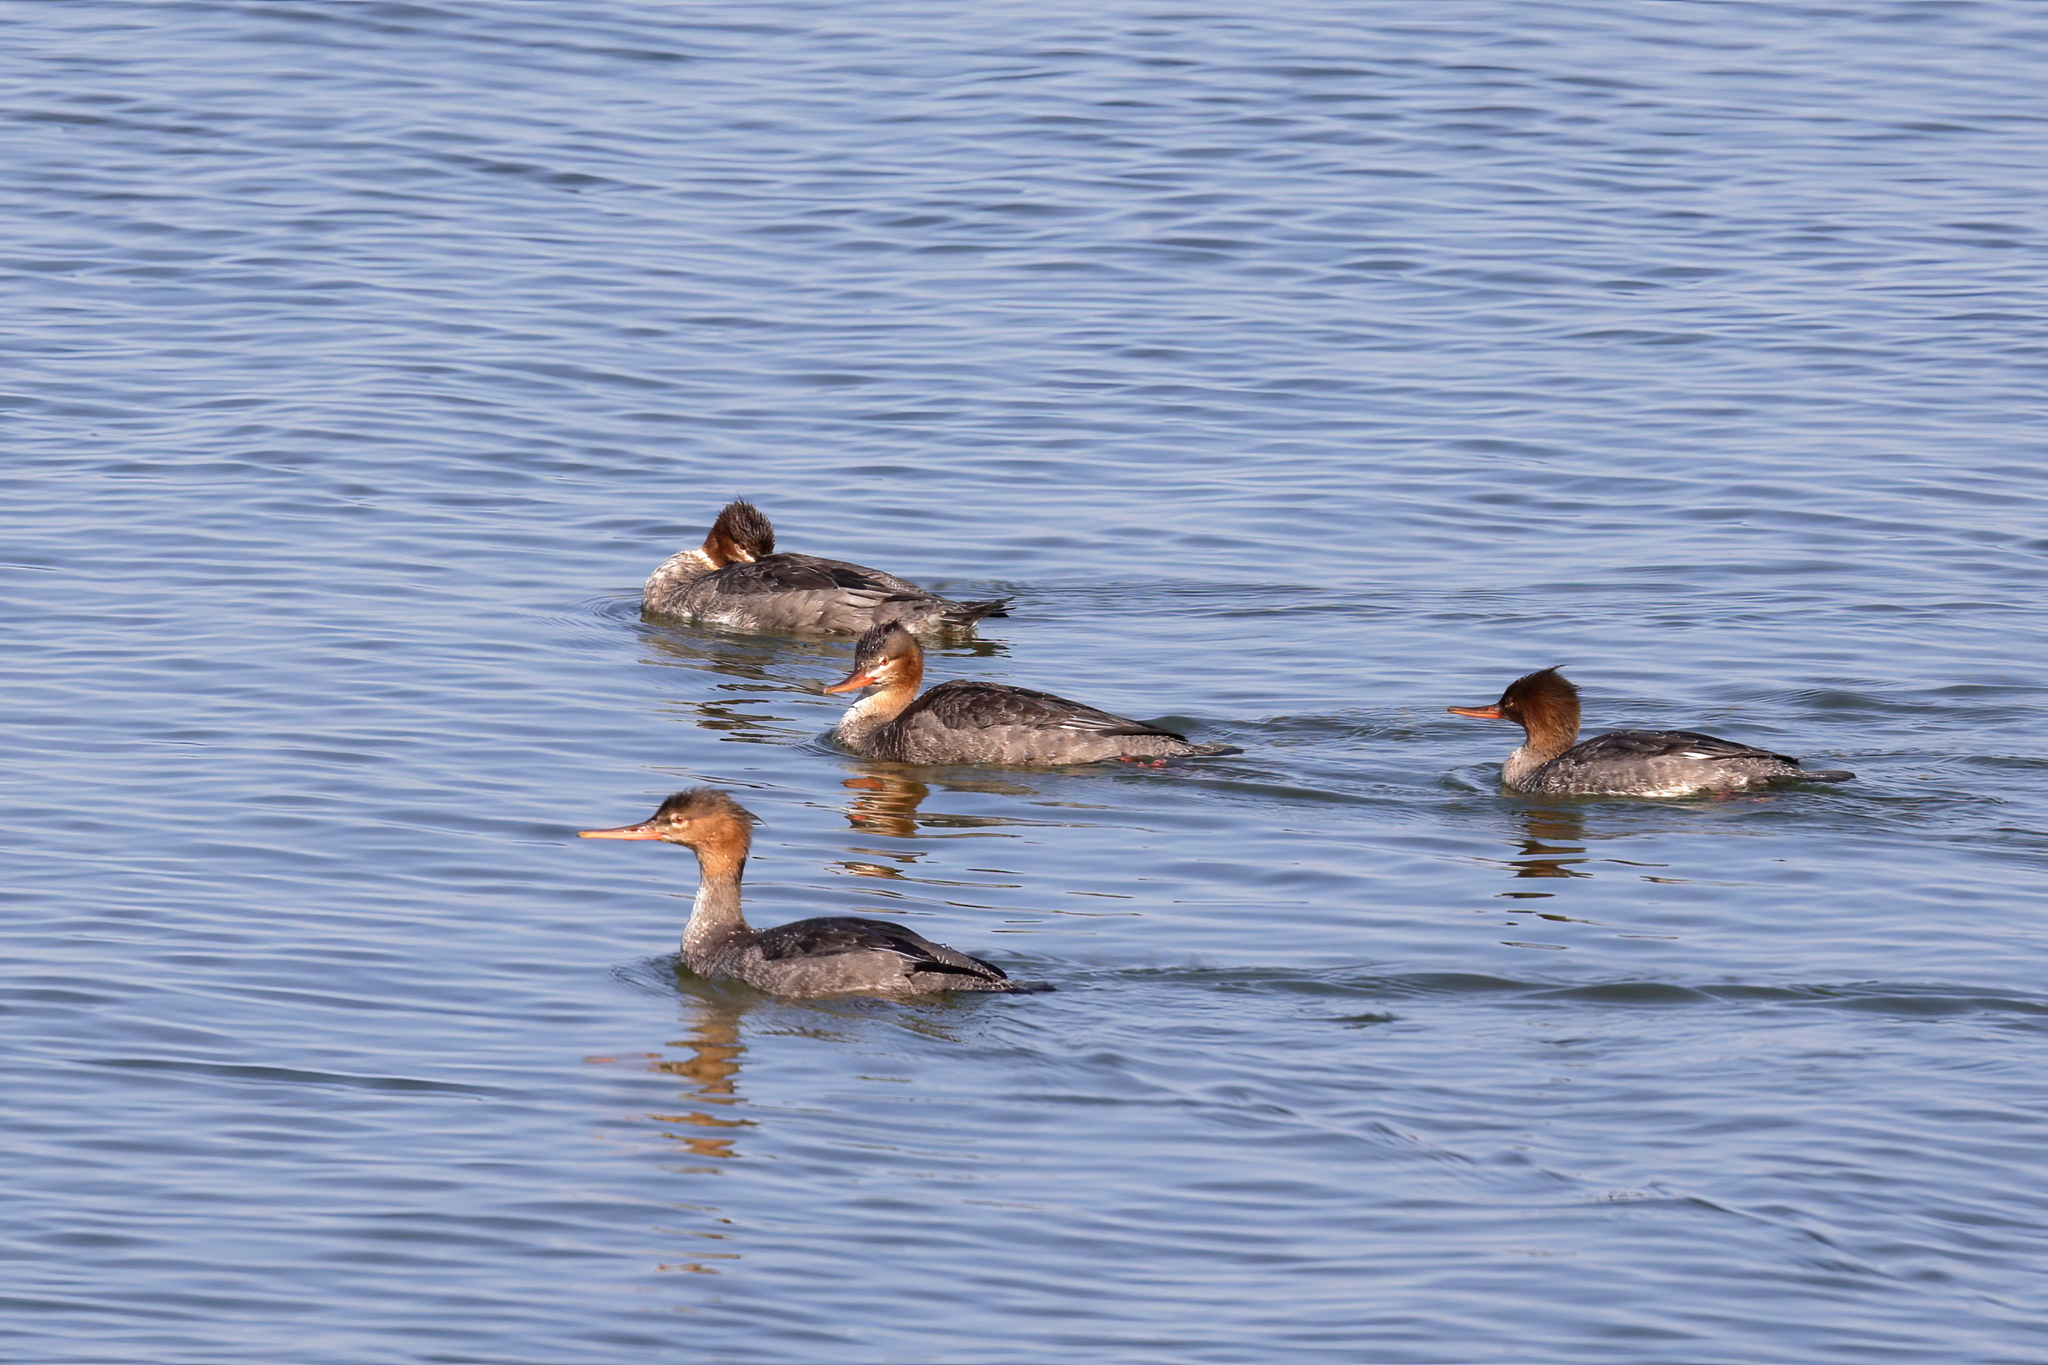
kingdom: Animalia
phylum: Chordata
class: Aves
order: Anseriformes
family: Anatidae
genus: Mergus
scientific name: Mergus serrator
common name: Red-breasted merganser
